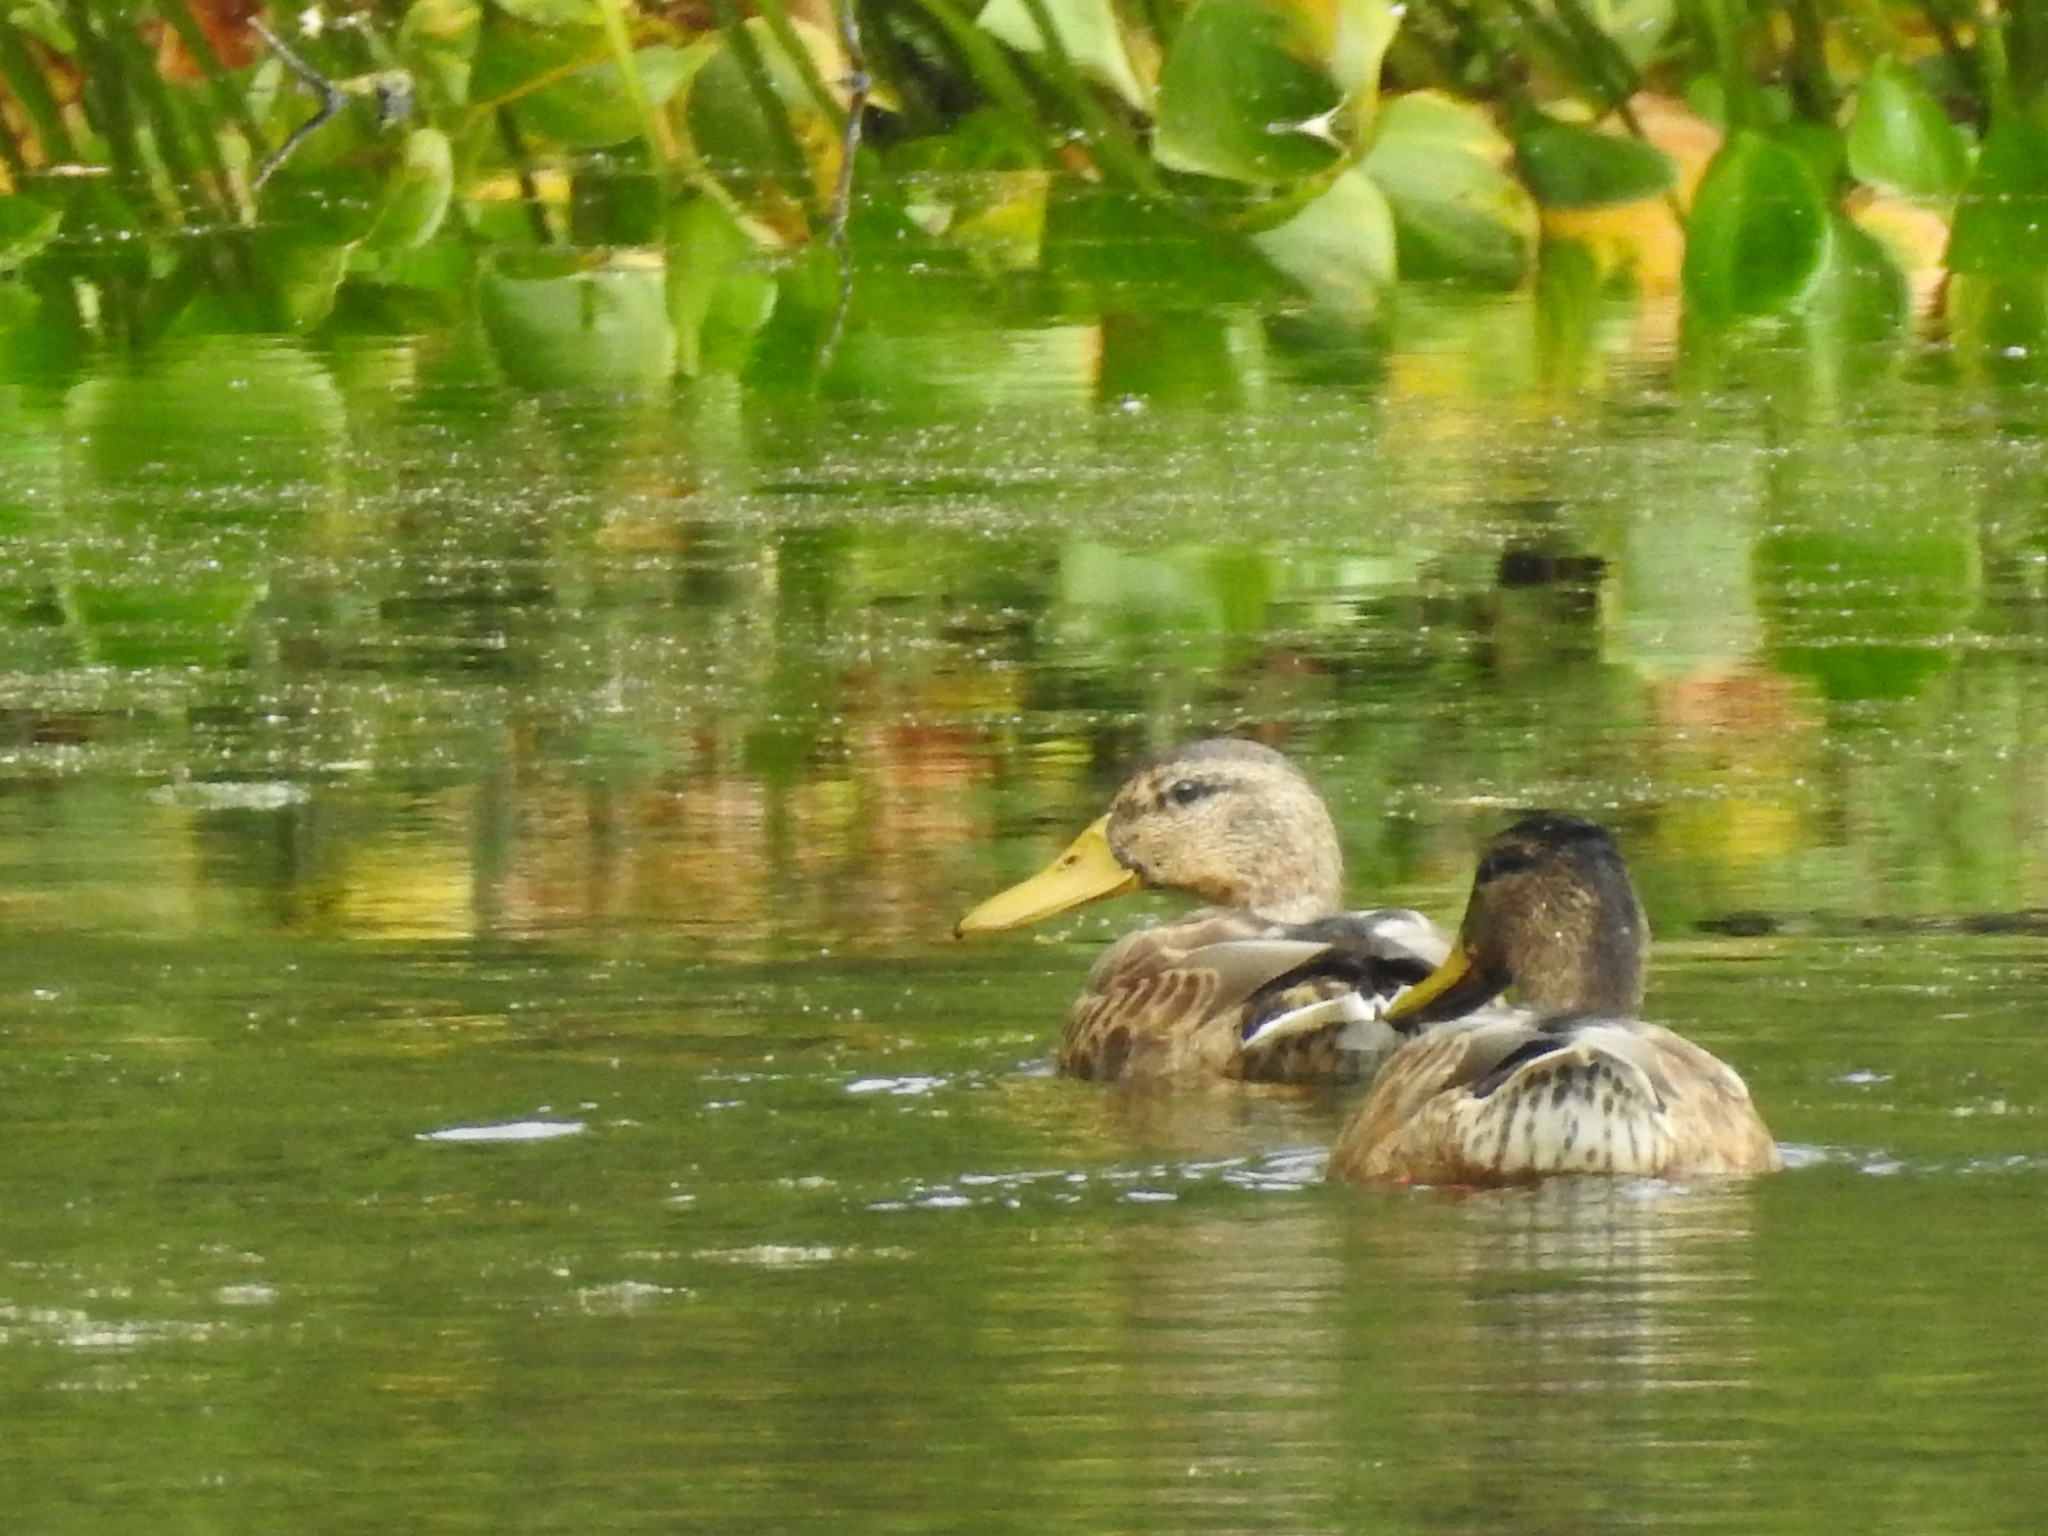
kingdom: Animalia
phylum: Chordata
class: Aves
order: Anseriformes
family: Anatidae
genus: Anas
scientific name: Anas platyrhynchos
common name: Mallard
